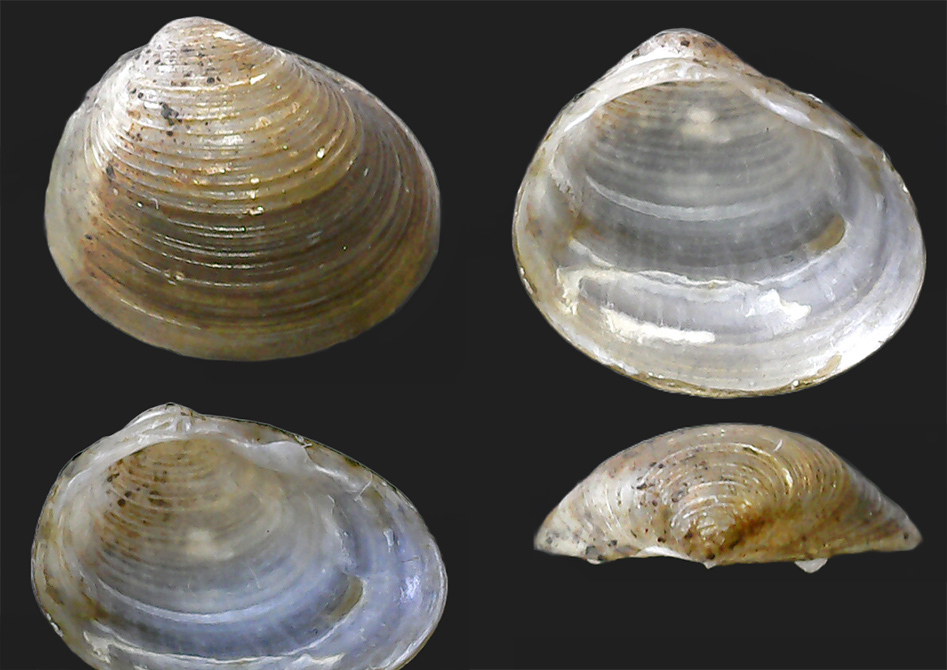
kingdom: Animalia
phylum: Mollusca
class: Bivalvia
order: Sphaeriida
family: Sphaeriidae
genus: Pisidium
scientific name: Pisidium amnicum
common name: Greater european peaclam
